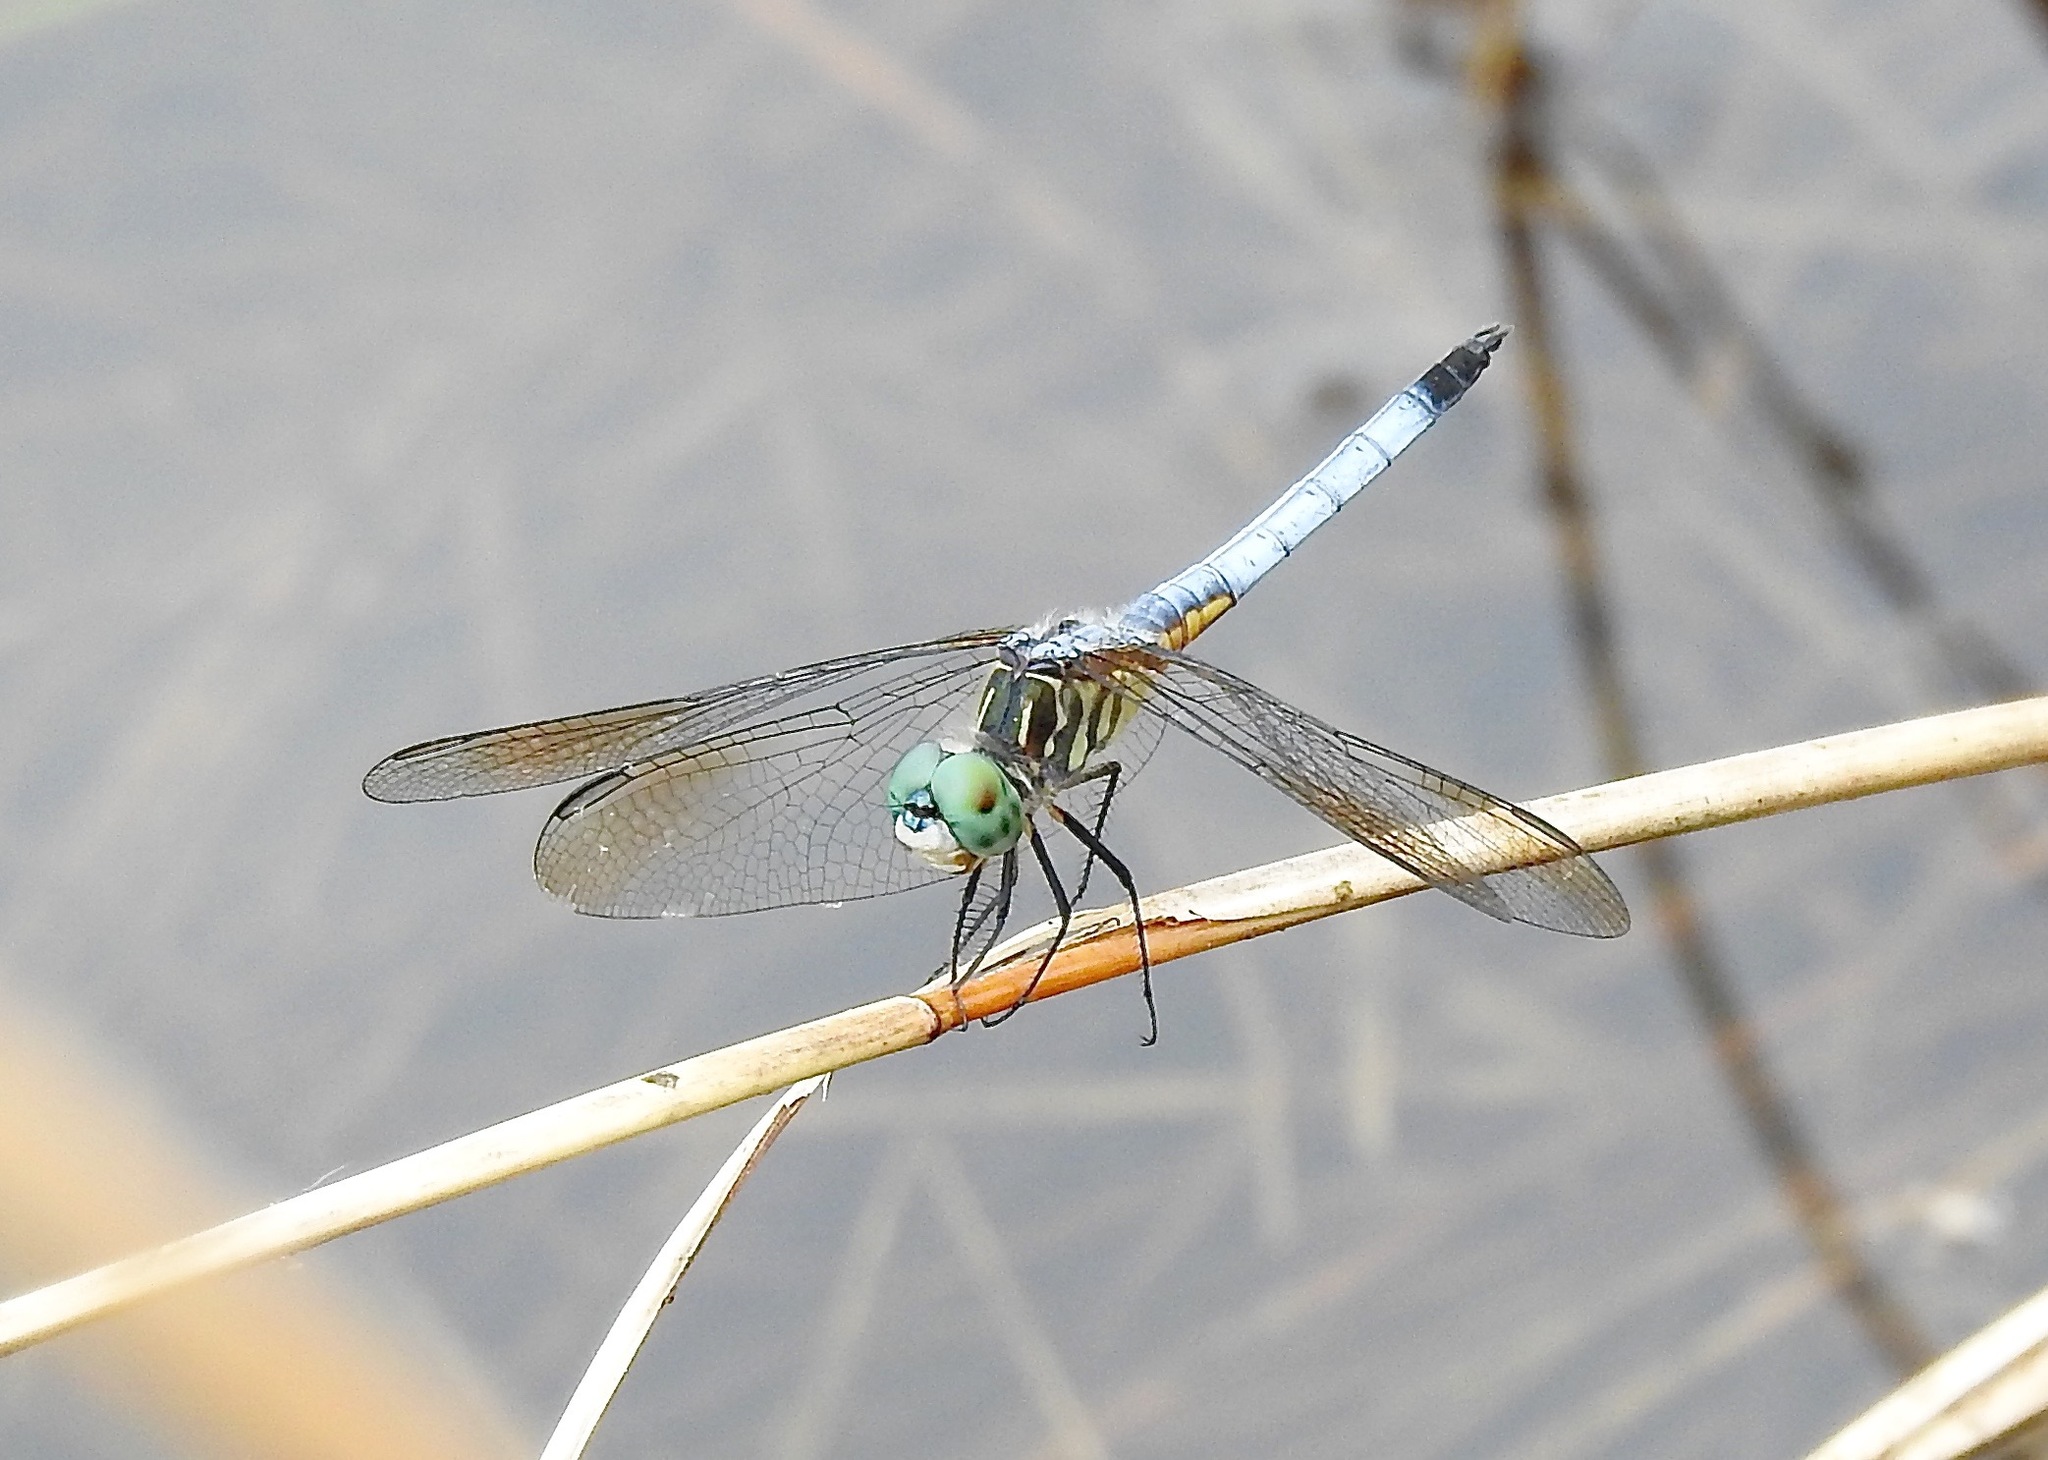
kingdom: Animalia
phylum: Arthropoda
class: Insecta
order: Odonata
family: Libellulidae
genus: Pachydiplax
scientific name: Pachydiplax longipennis
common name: Blue dasher
